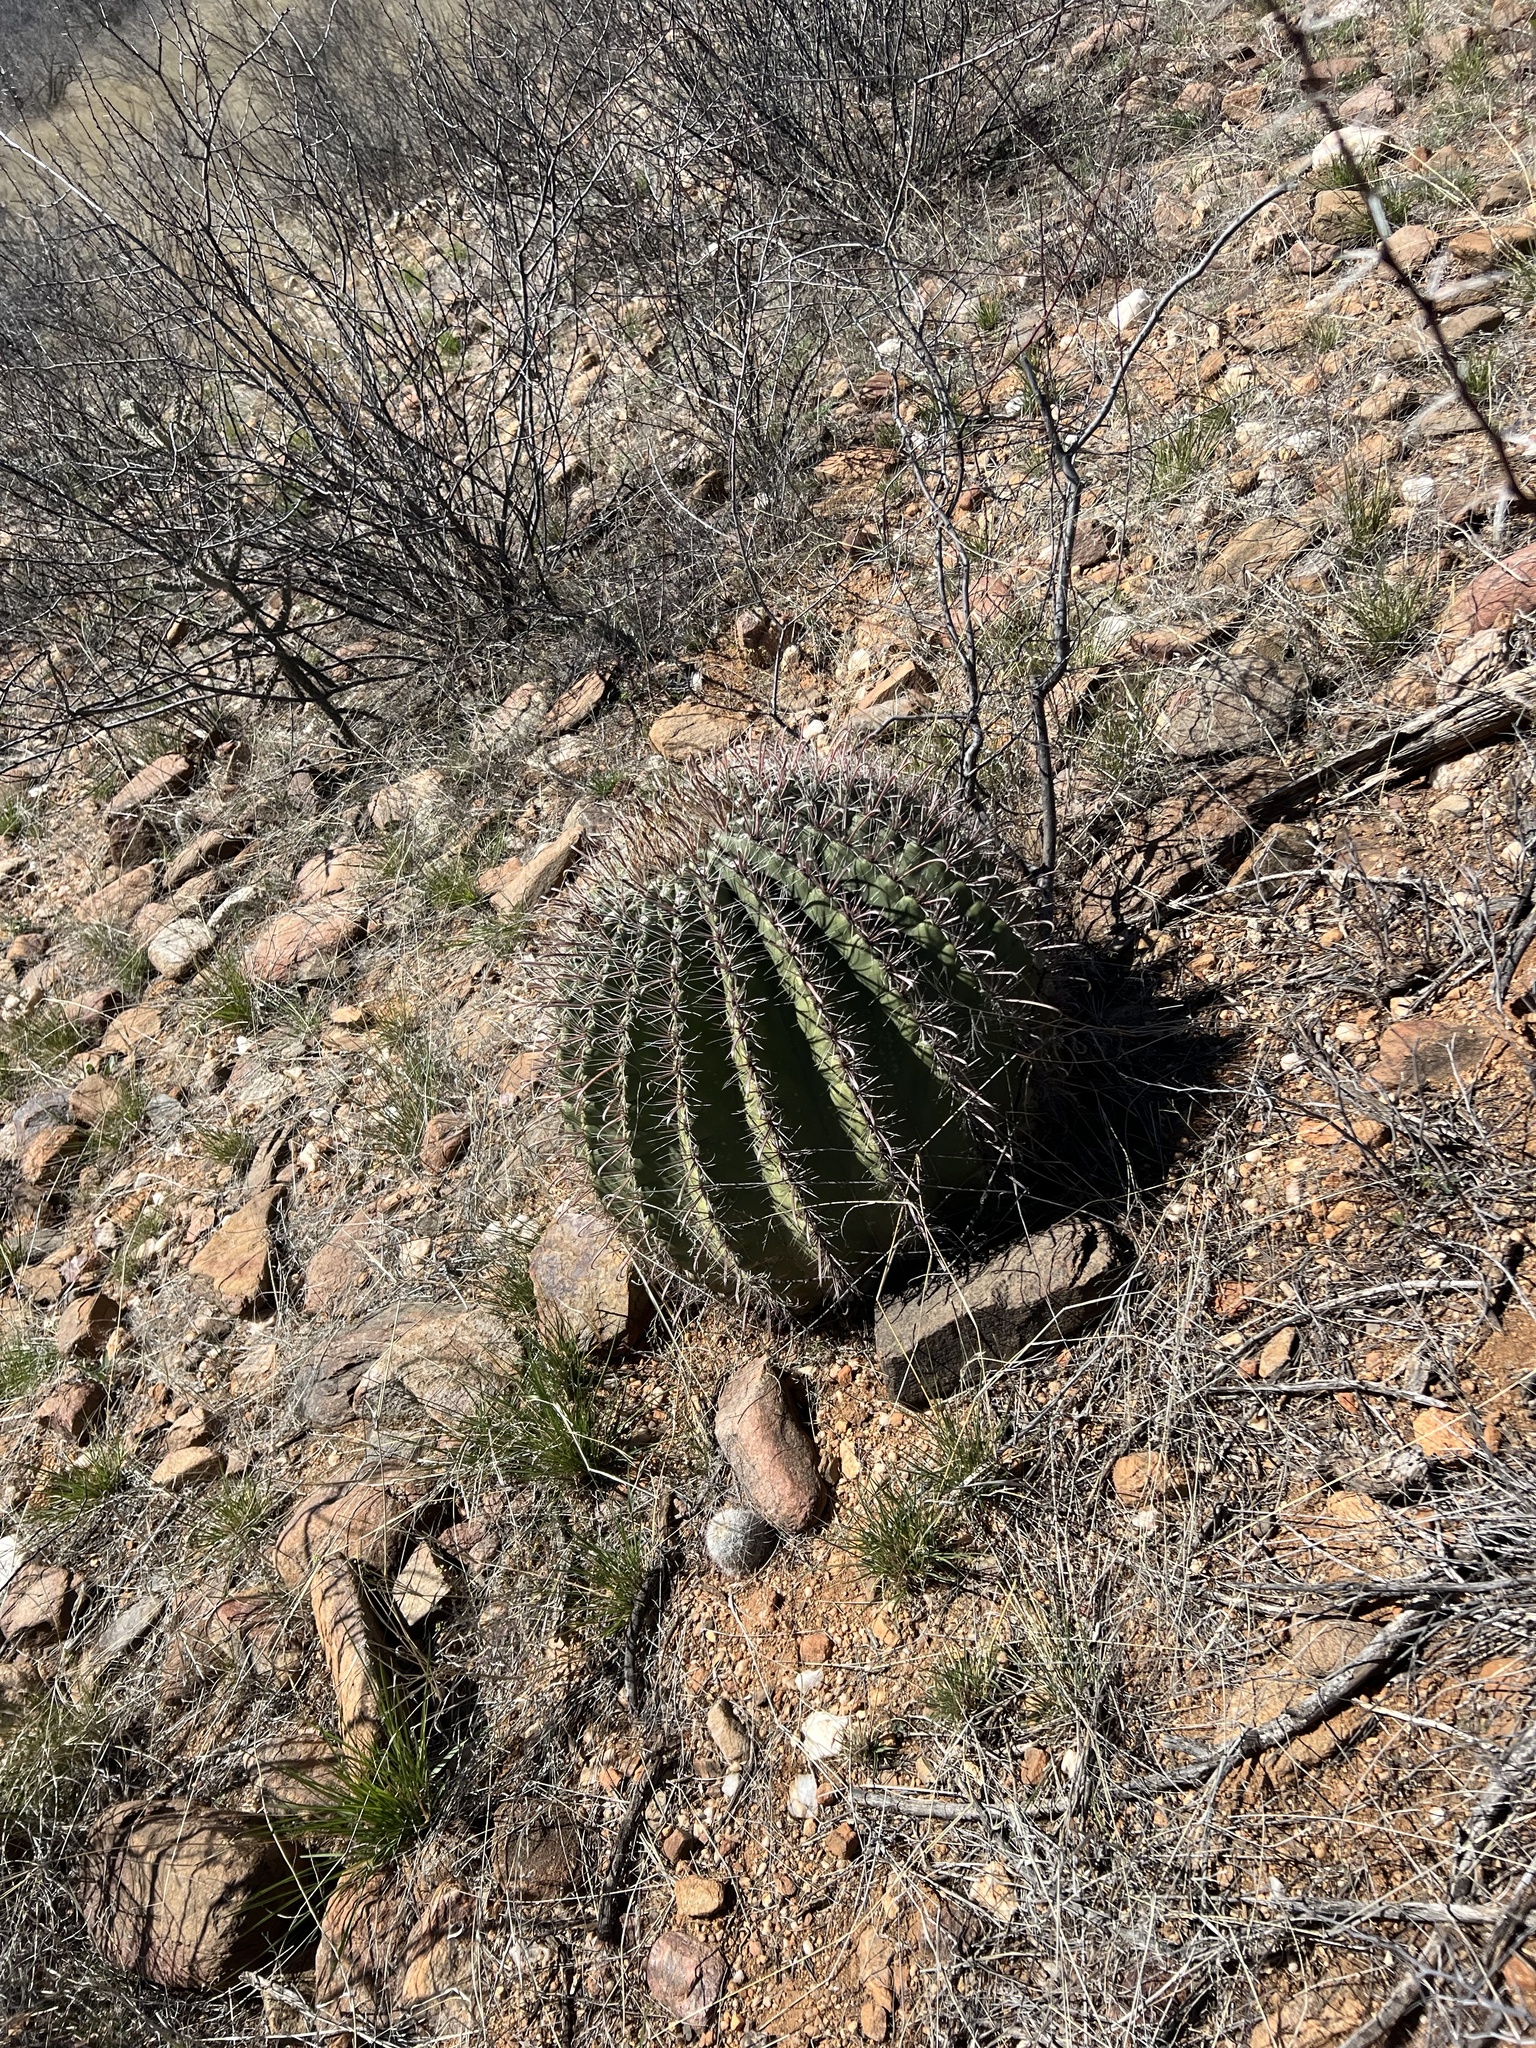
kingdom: Plantae
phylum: Tracheophyta
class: Magnoliopsida
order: Caryophyllales
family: Cactaceae
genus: Ferocactus
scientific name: Ferocactus wislizeni
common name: Candy barrel cactus
